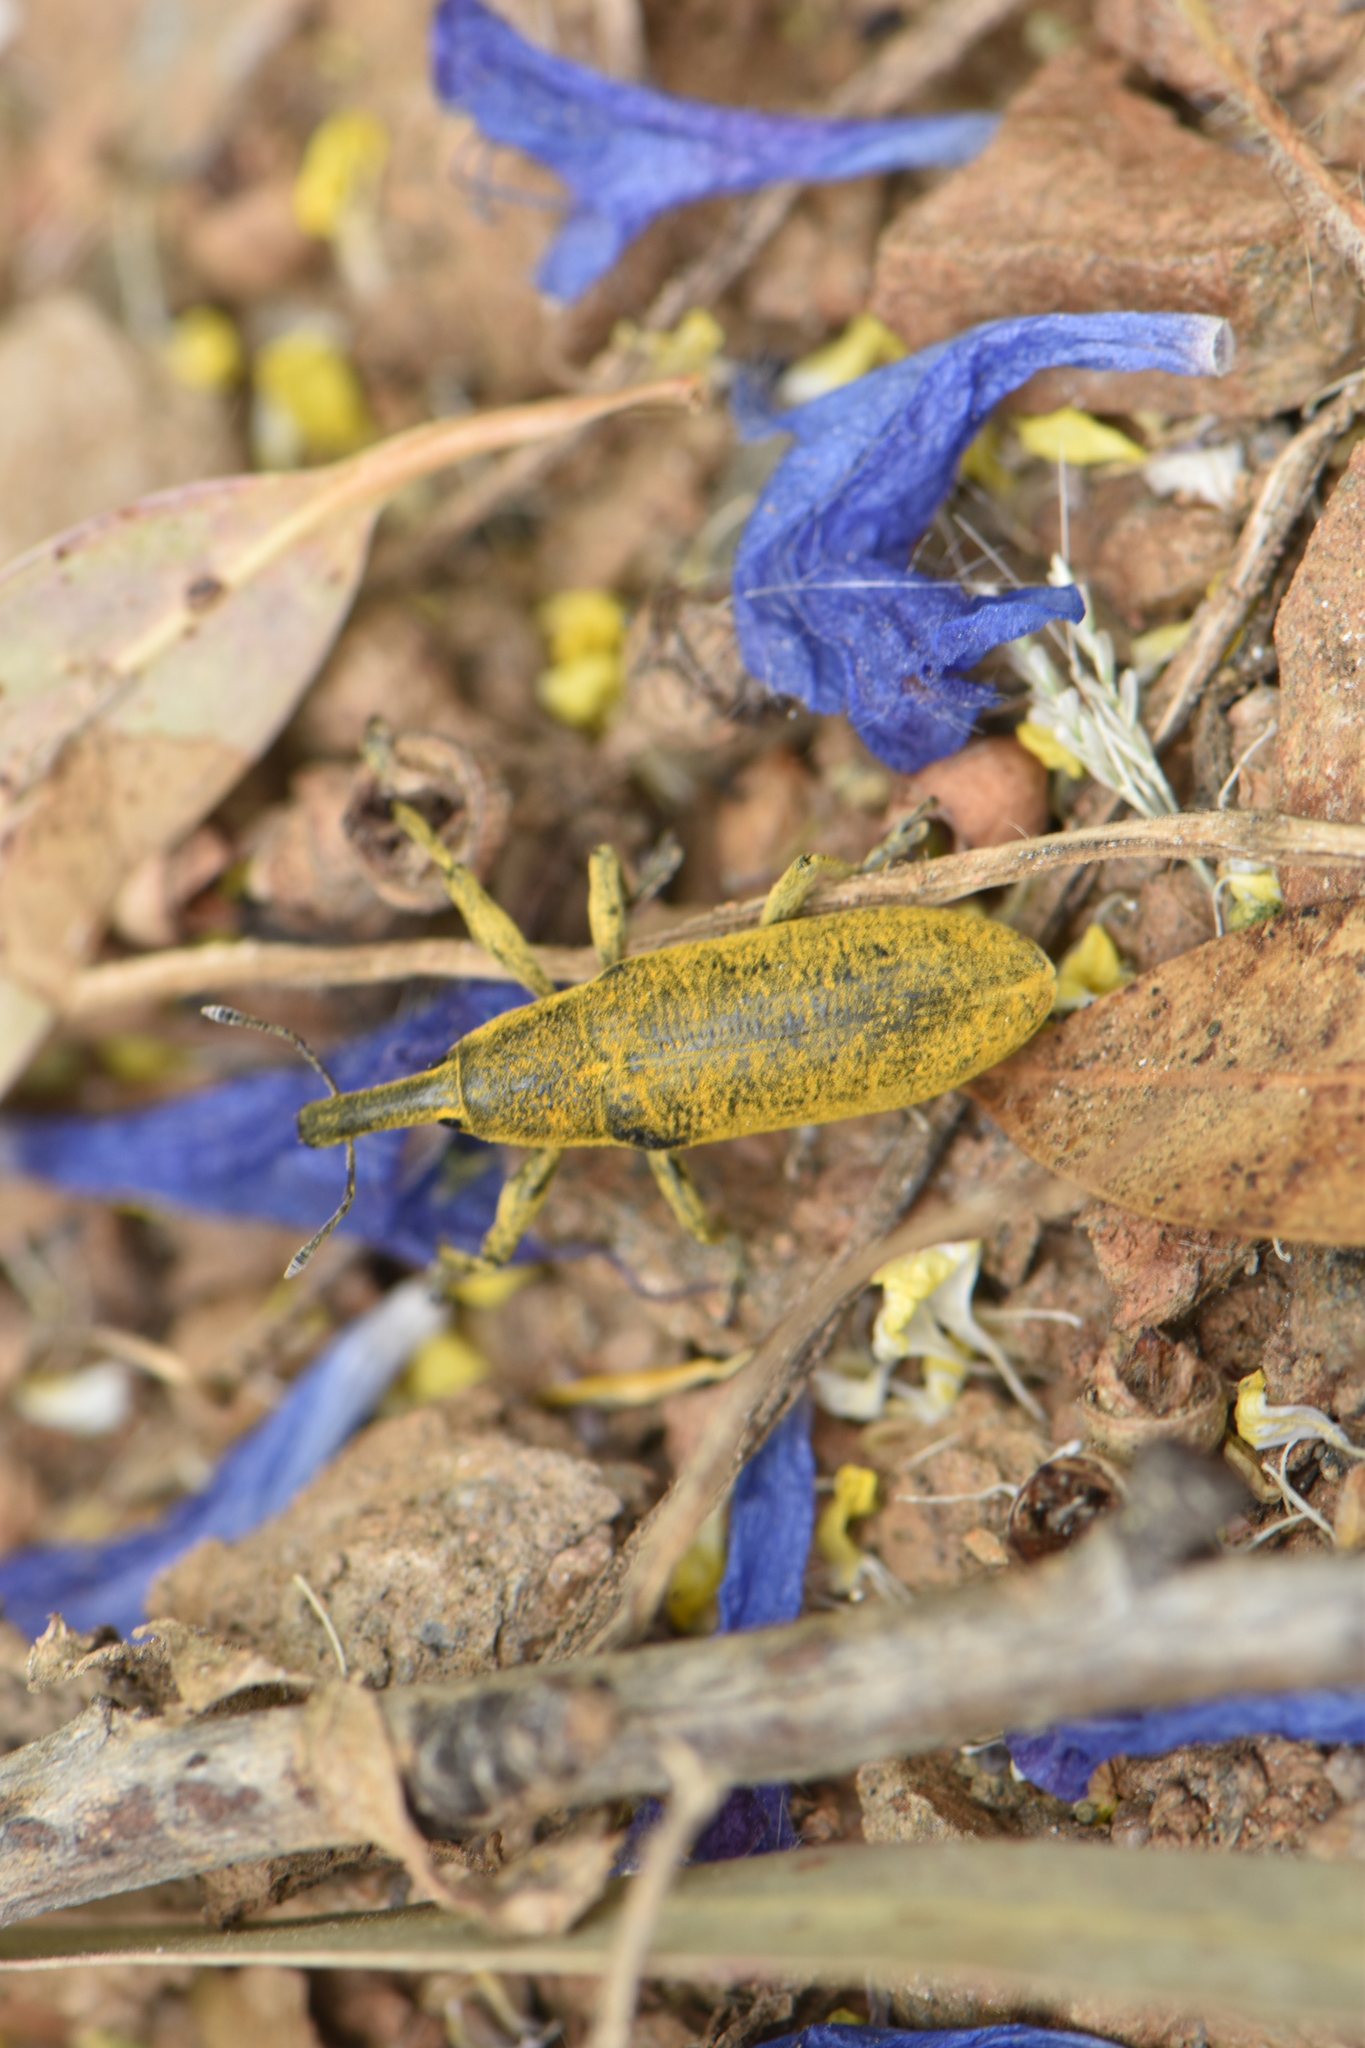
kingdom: Animalia
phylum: Arthropoda
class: Insecta
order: Coleoptera
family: Curculionidae
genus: Lixus
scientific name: Lixus pulverulentus
